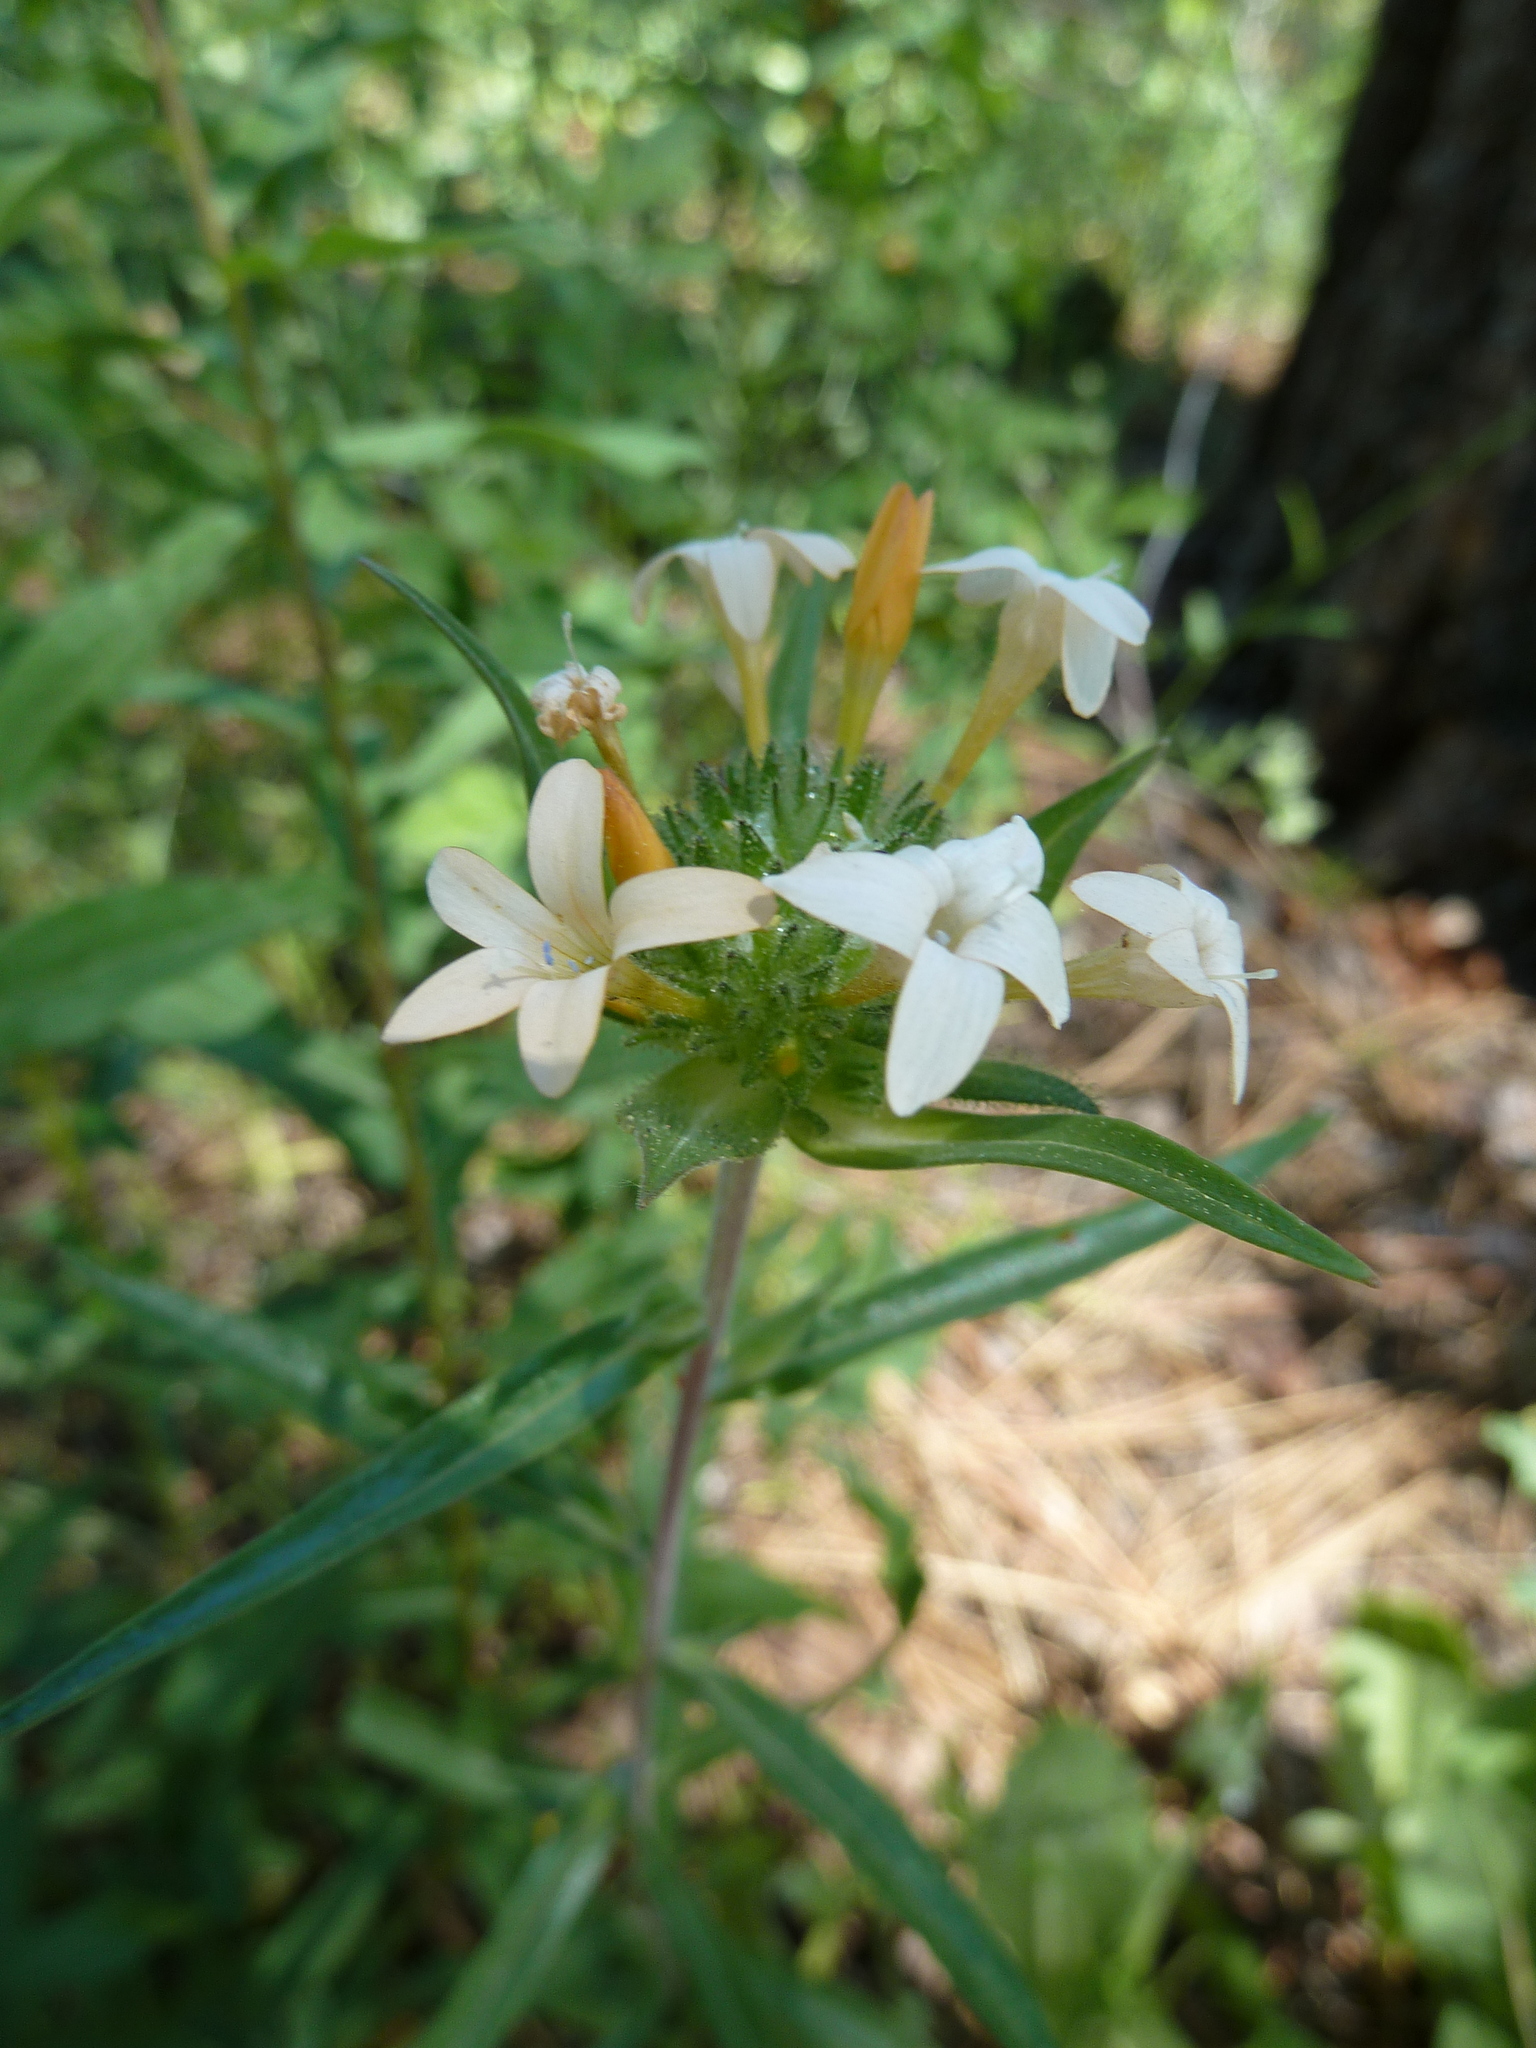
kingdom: Plantae
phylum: Tracheophyta
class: Magnoliopsida
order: Ericales
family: Polemoniaceae
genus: Collomia
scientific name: Collomia grandiflora
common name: California strawflower
